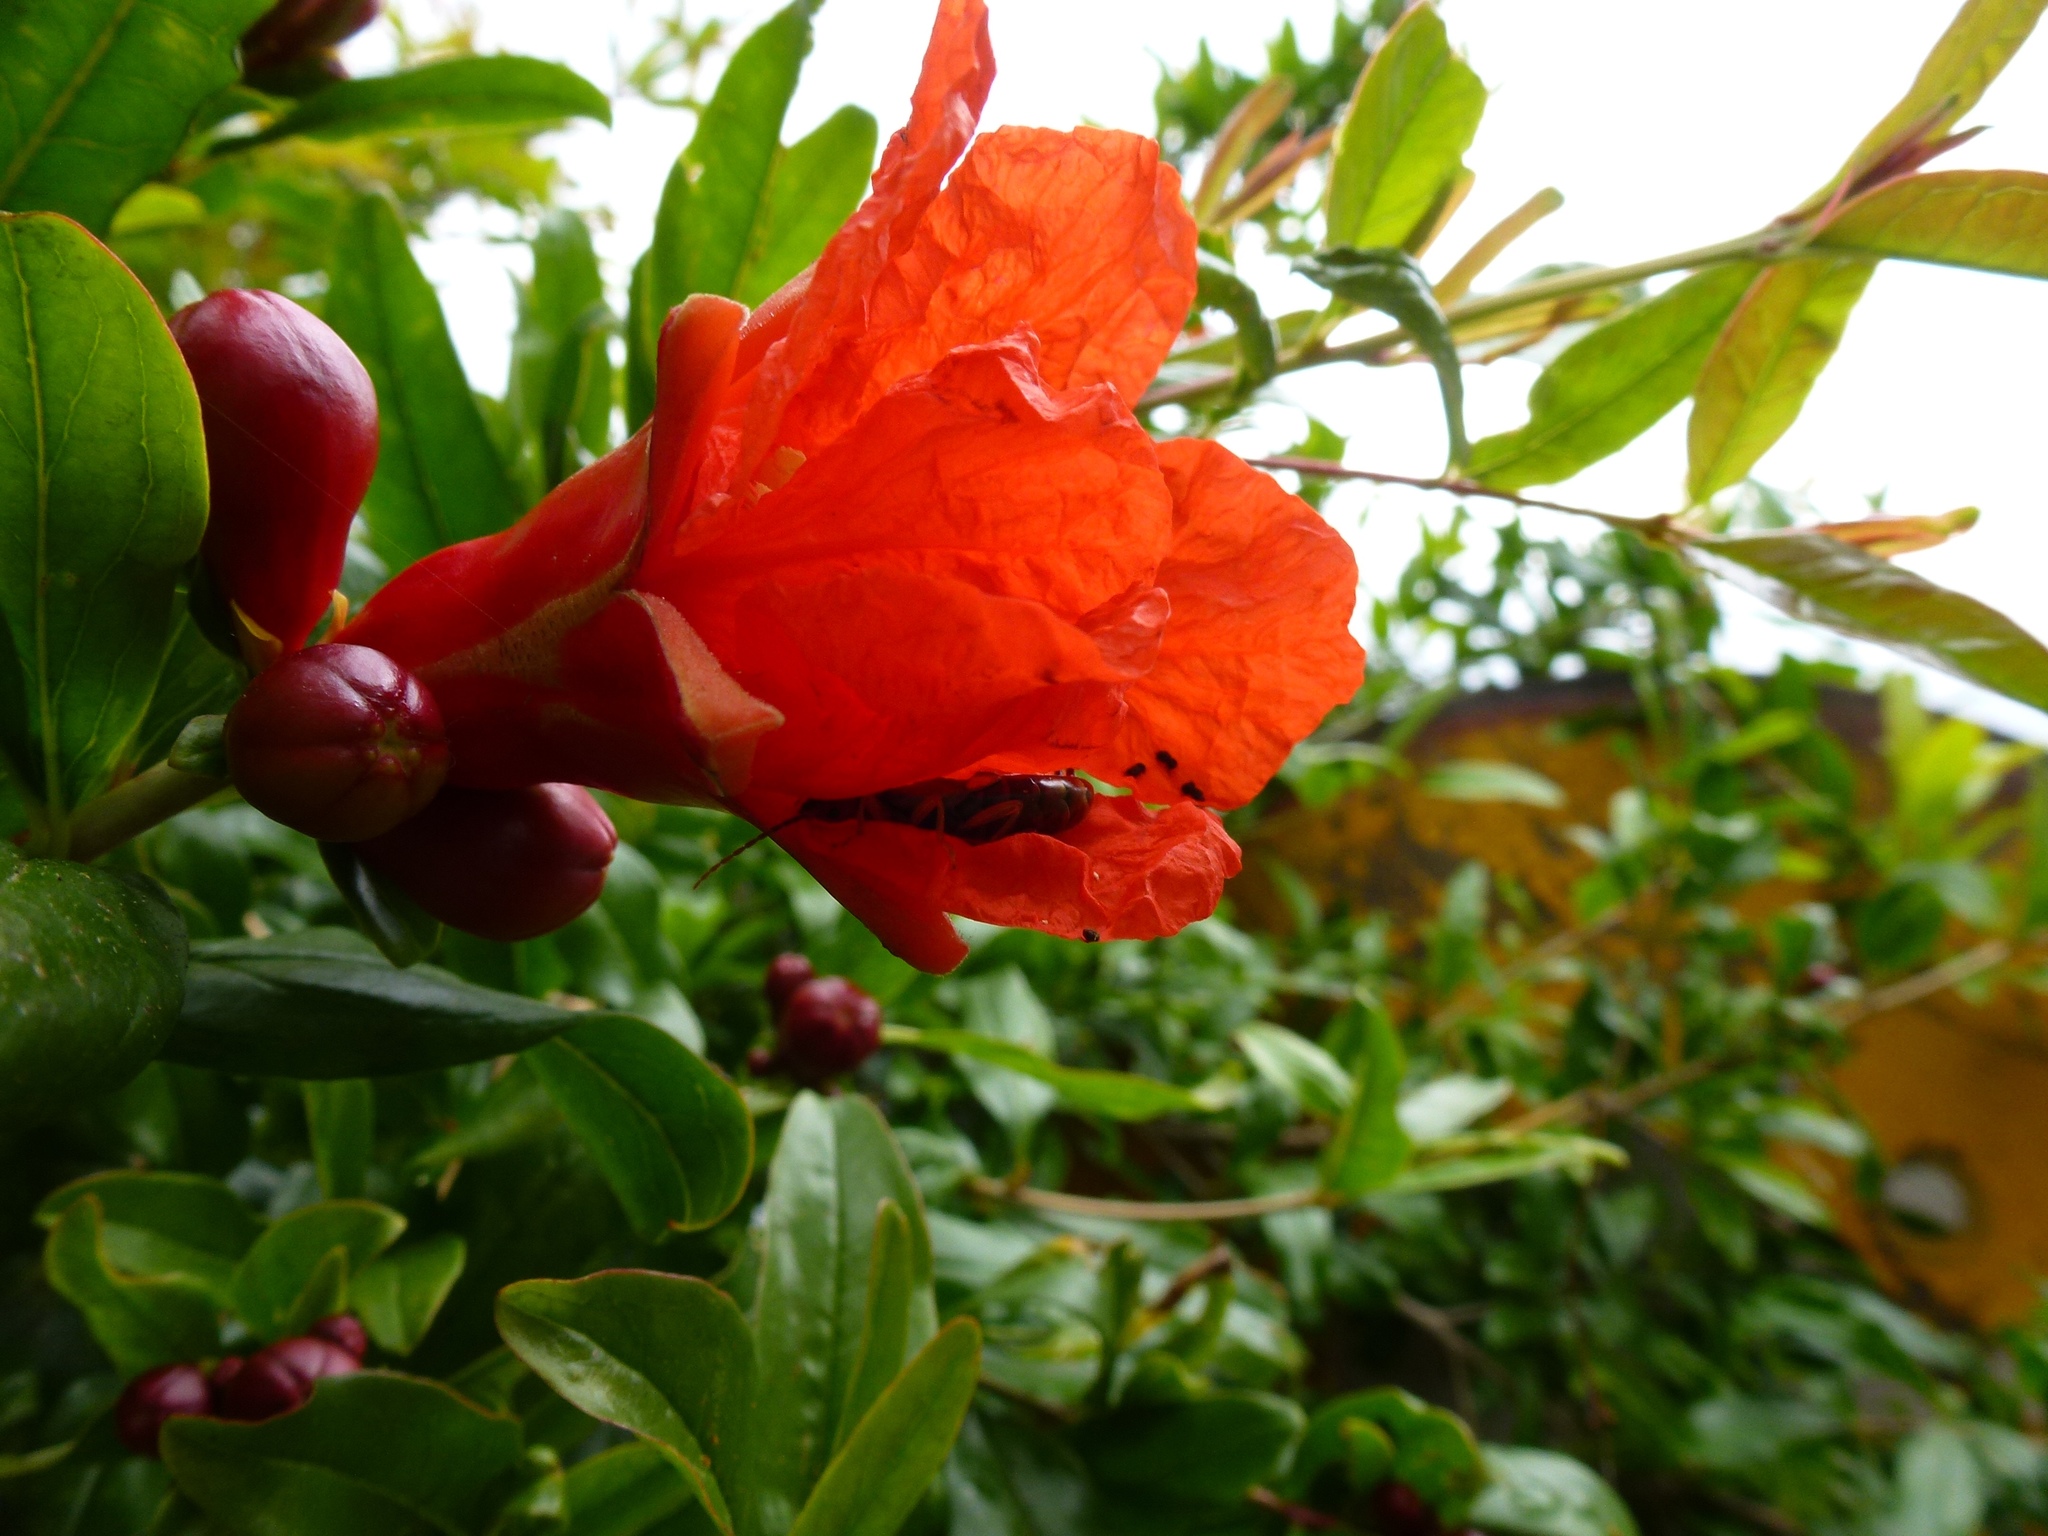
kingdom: Animalia
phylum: Arthropoda
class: Insecta
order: Dermaptera
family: Forficulidae
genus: Forficula
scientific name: Forficula
